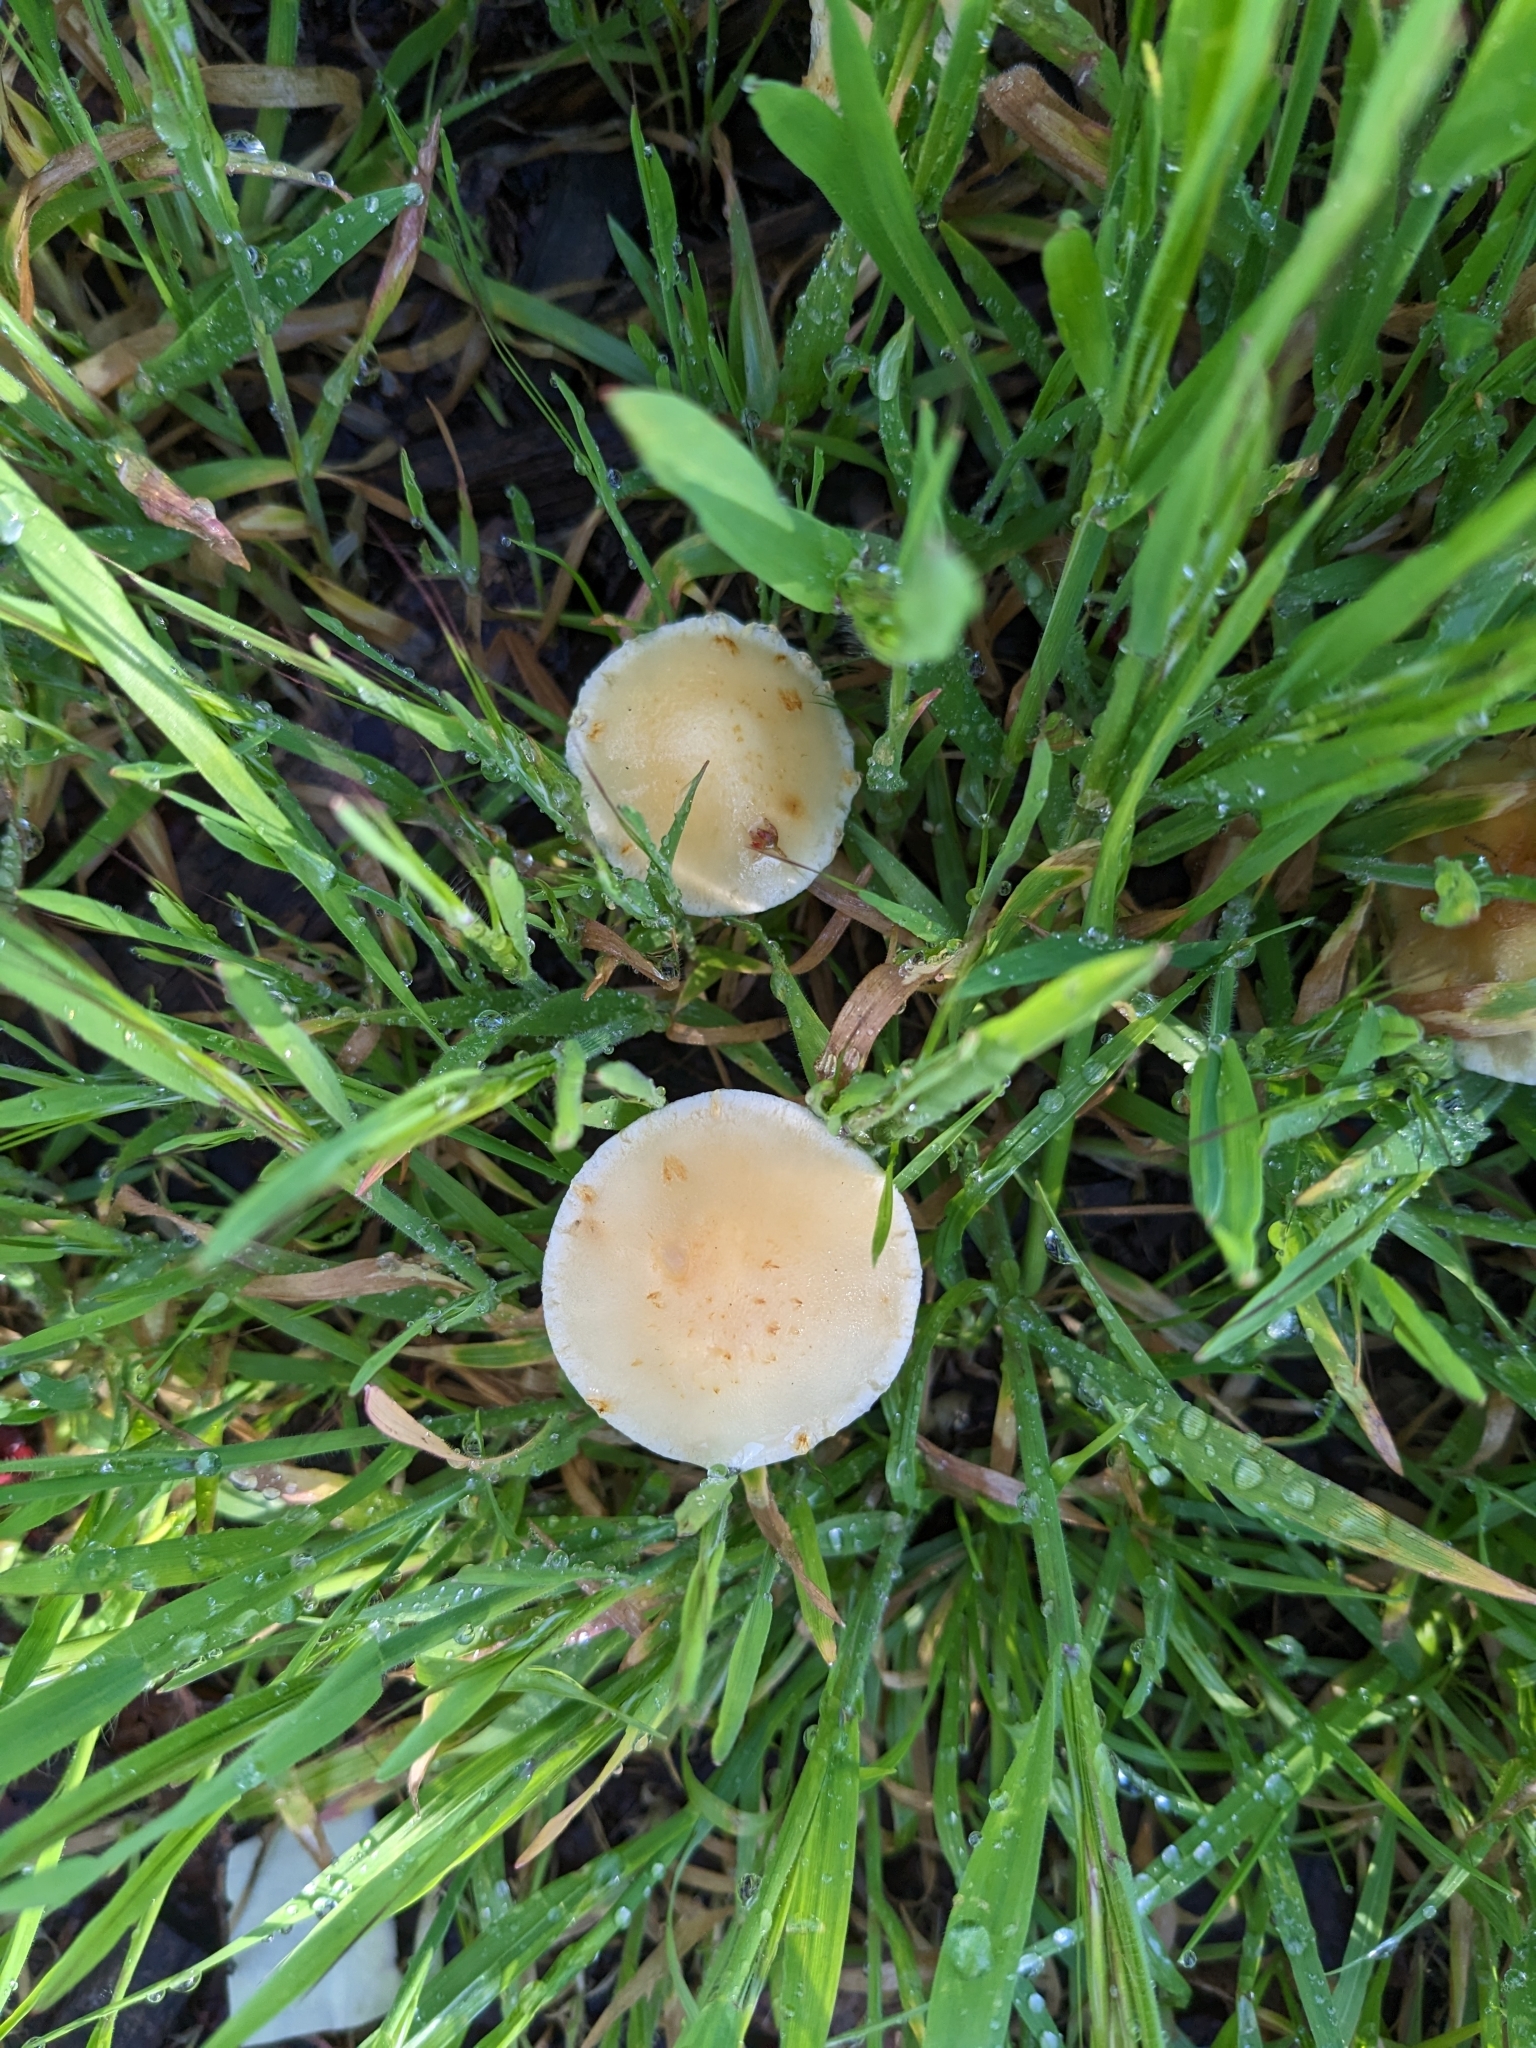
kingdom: Fungi
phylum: Basidiomycota
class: Agaricomycetes
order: Agaricales
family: Strophariaceae
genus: Leratiomyces
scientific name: Leratiomyces percevalii
